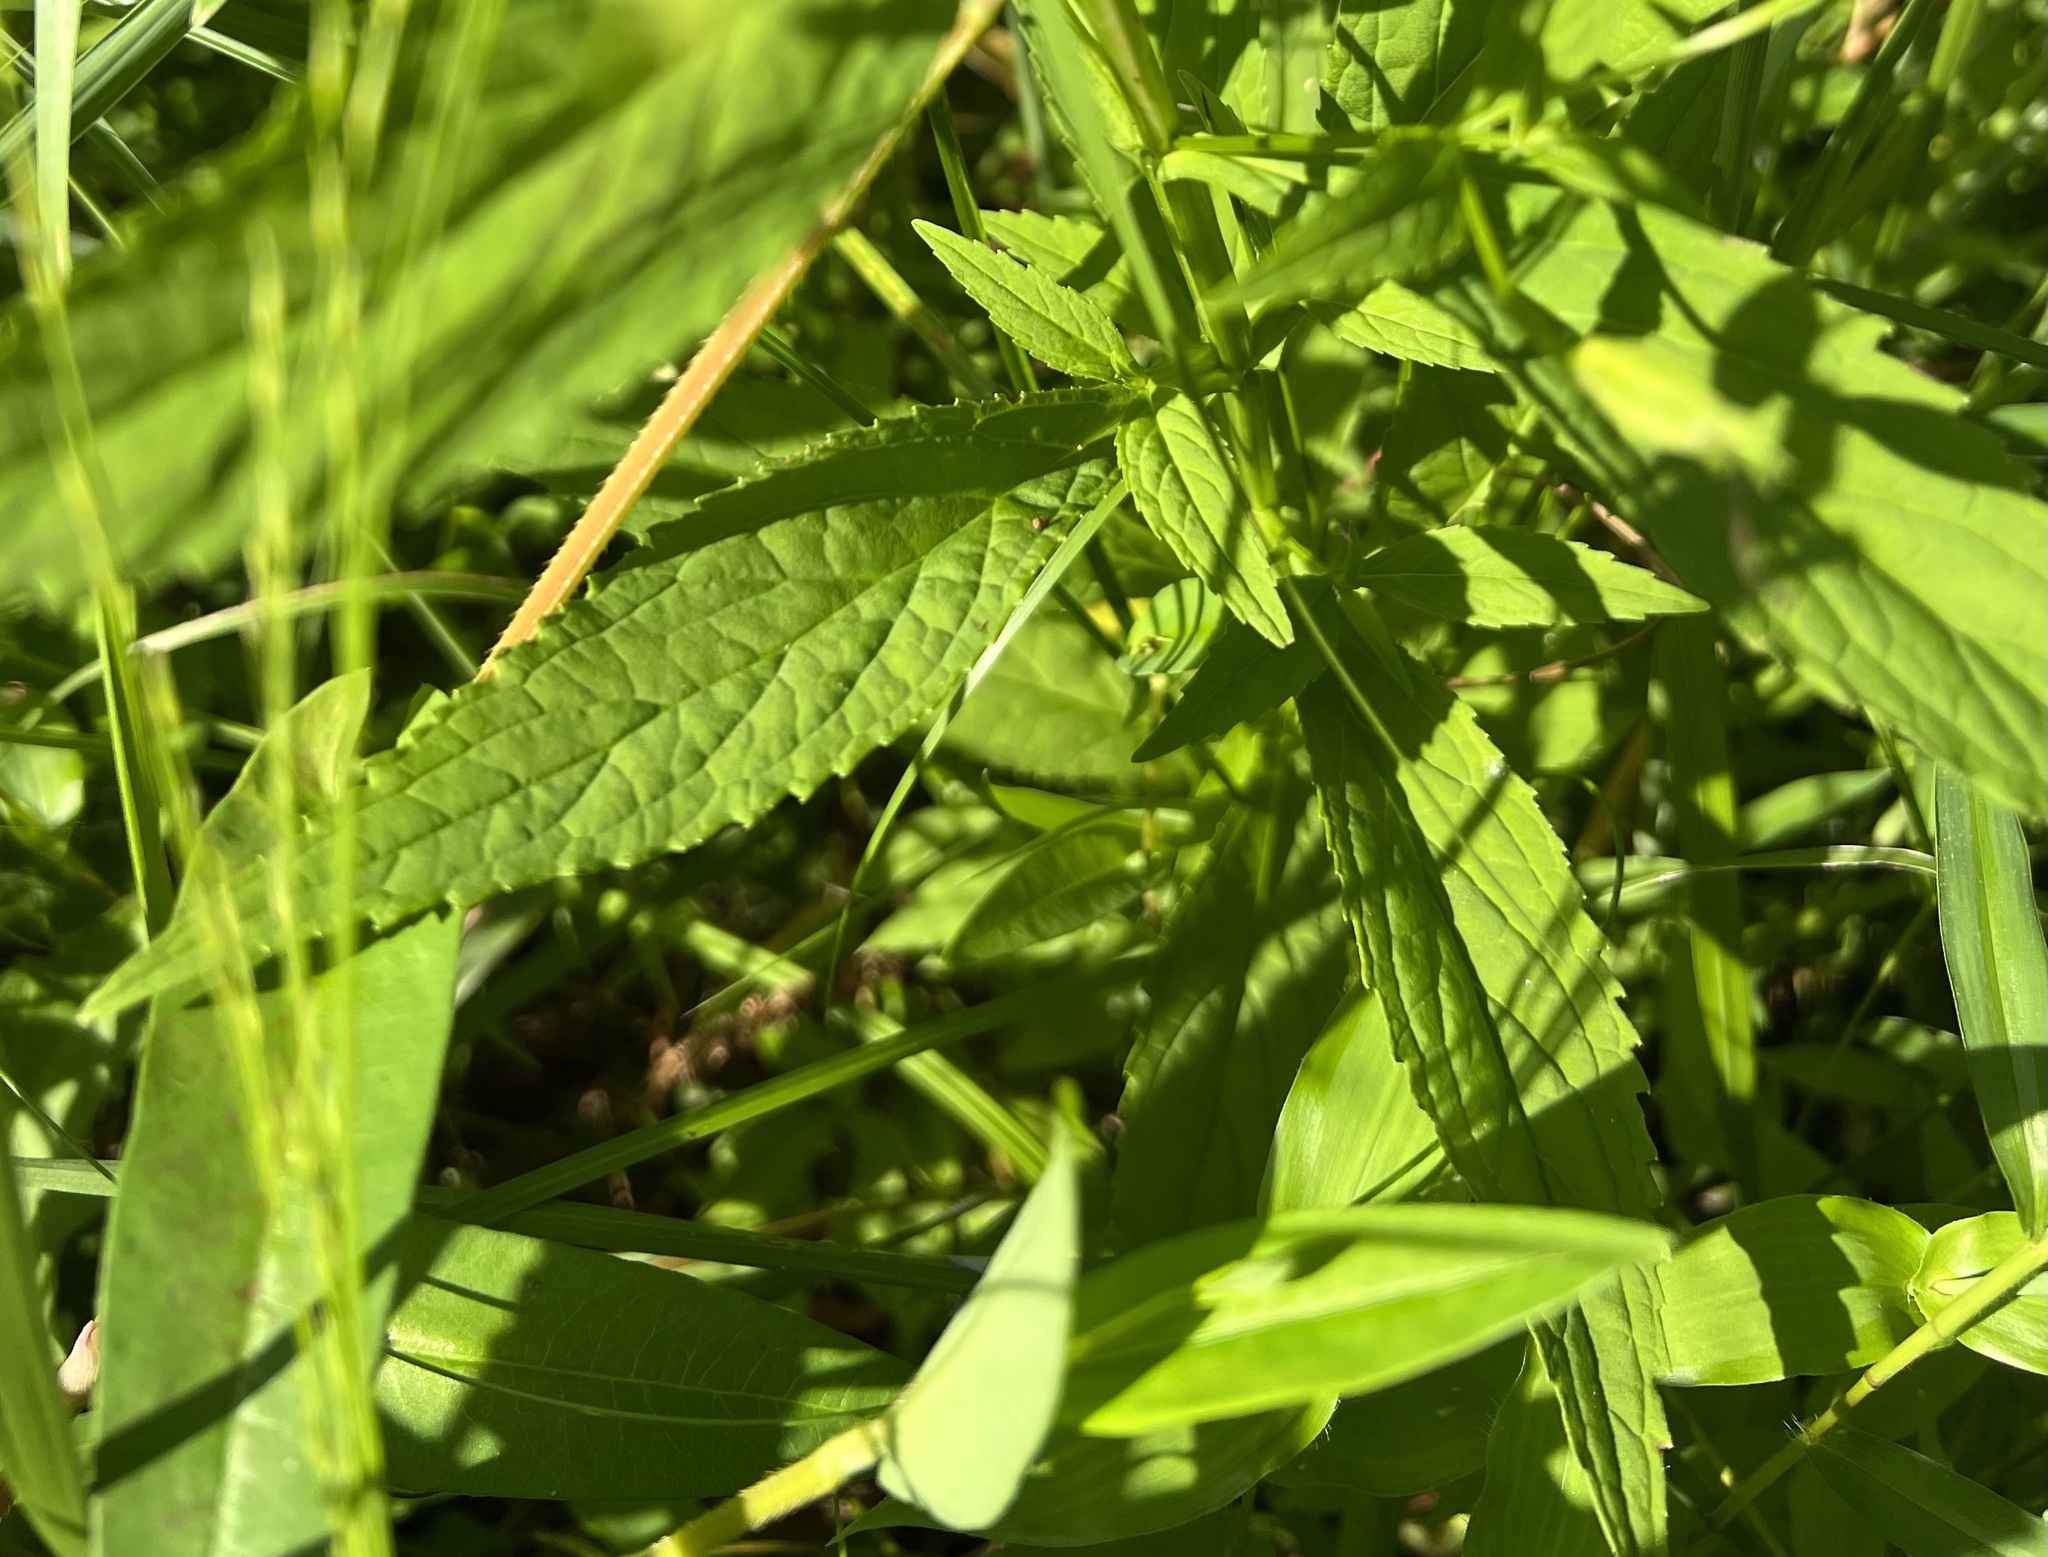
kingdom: Plantae
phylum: Tracheophyta
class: Magnoliopsida
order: Lamiales
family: Phrymaceae
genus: Mimulus
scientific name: Mimulus ringens
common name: Allegheny monkeyflower
